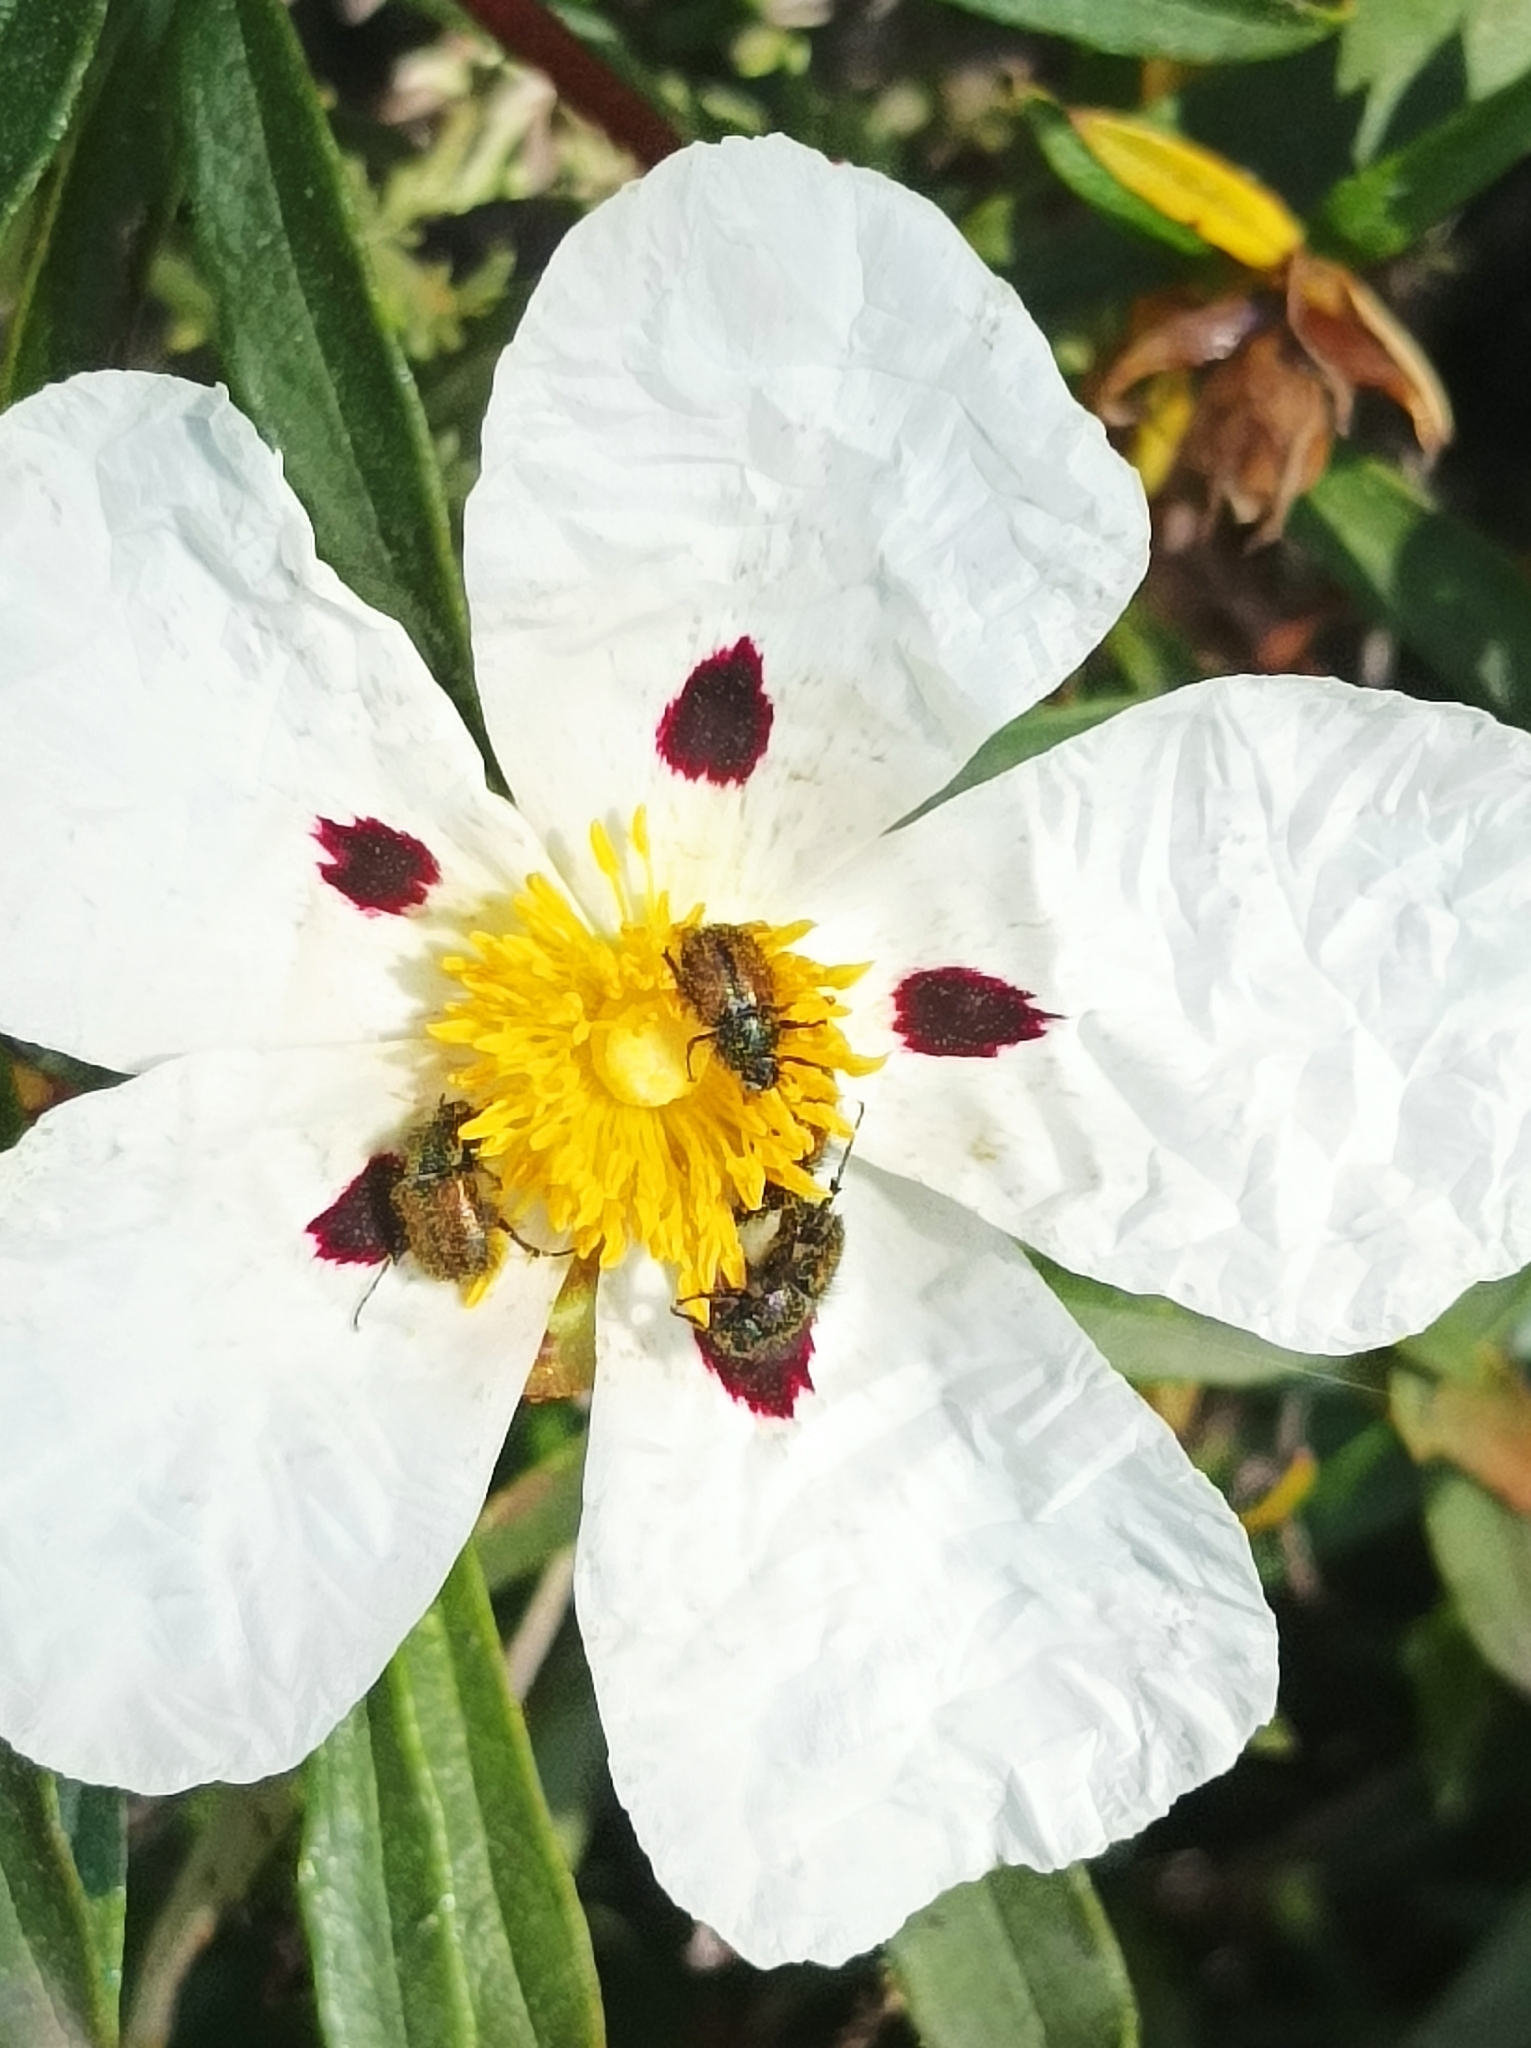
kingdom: Plantae
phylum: Tracheophyta
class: Magnoliopsida
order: Malvales
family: Cistaceae
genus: Cistus
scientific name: Cistus ladanifer
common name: Common gum cistus
